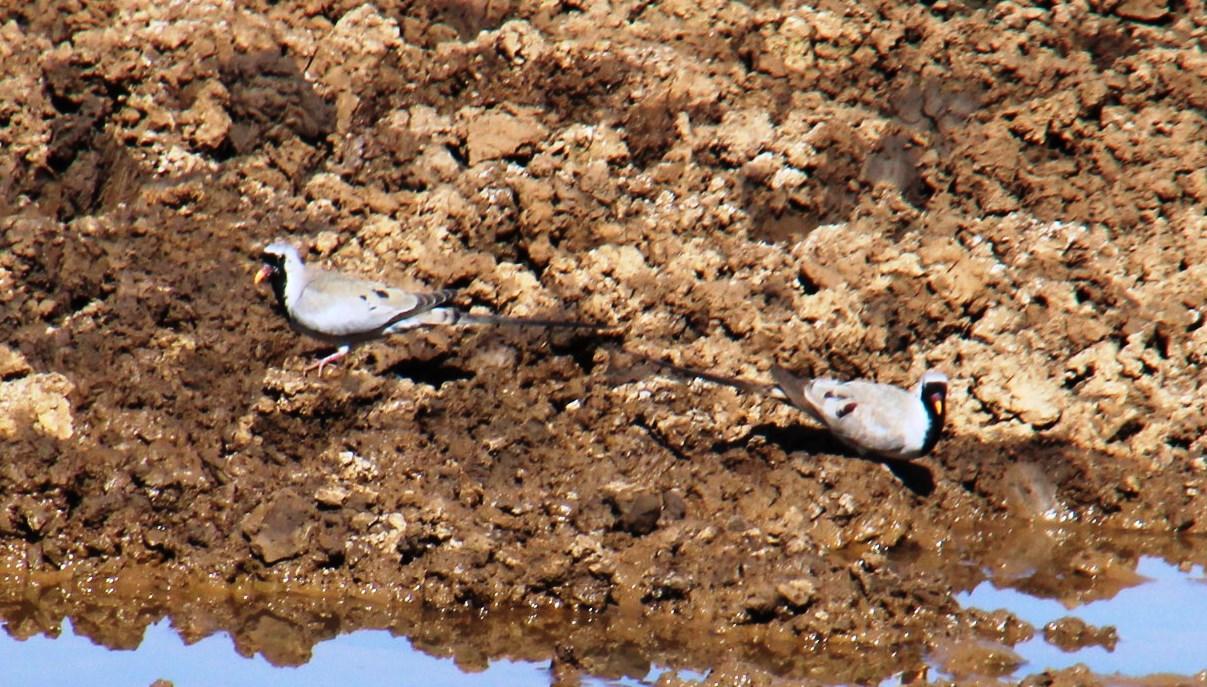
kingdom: Animalia
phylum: Chordata
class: Aves
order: Columbiformes
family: Columbidae
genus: Oena
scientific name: Oena capensis
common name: Namaqua dove
